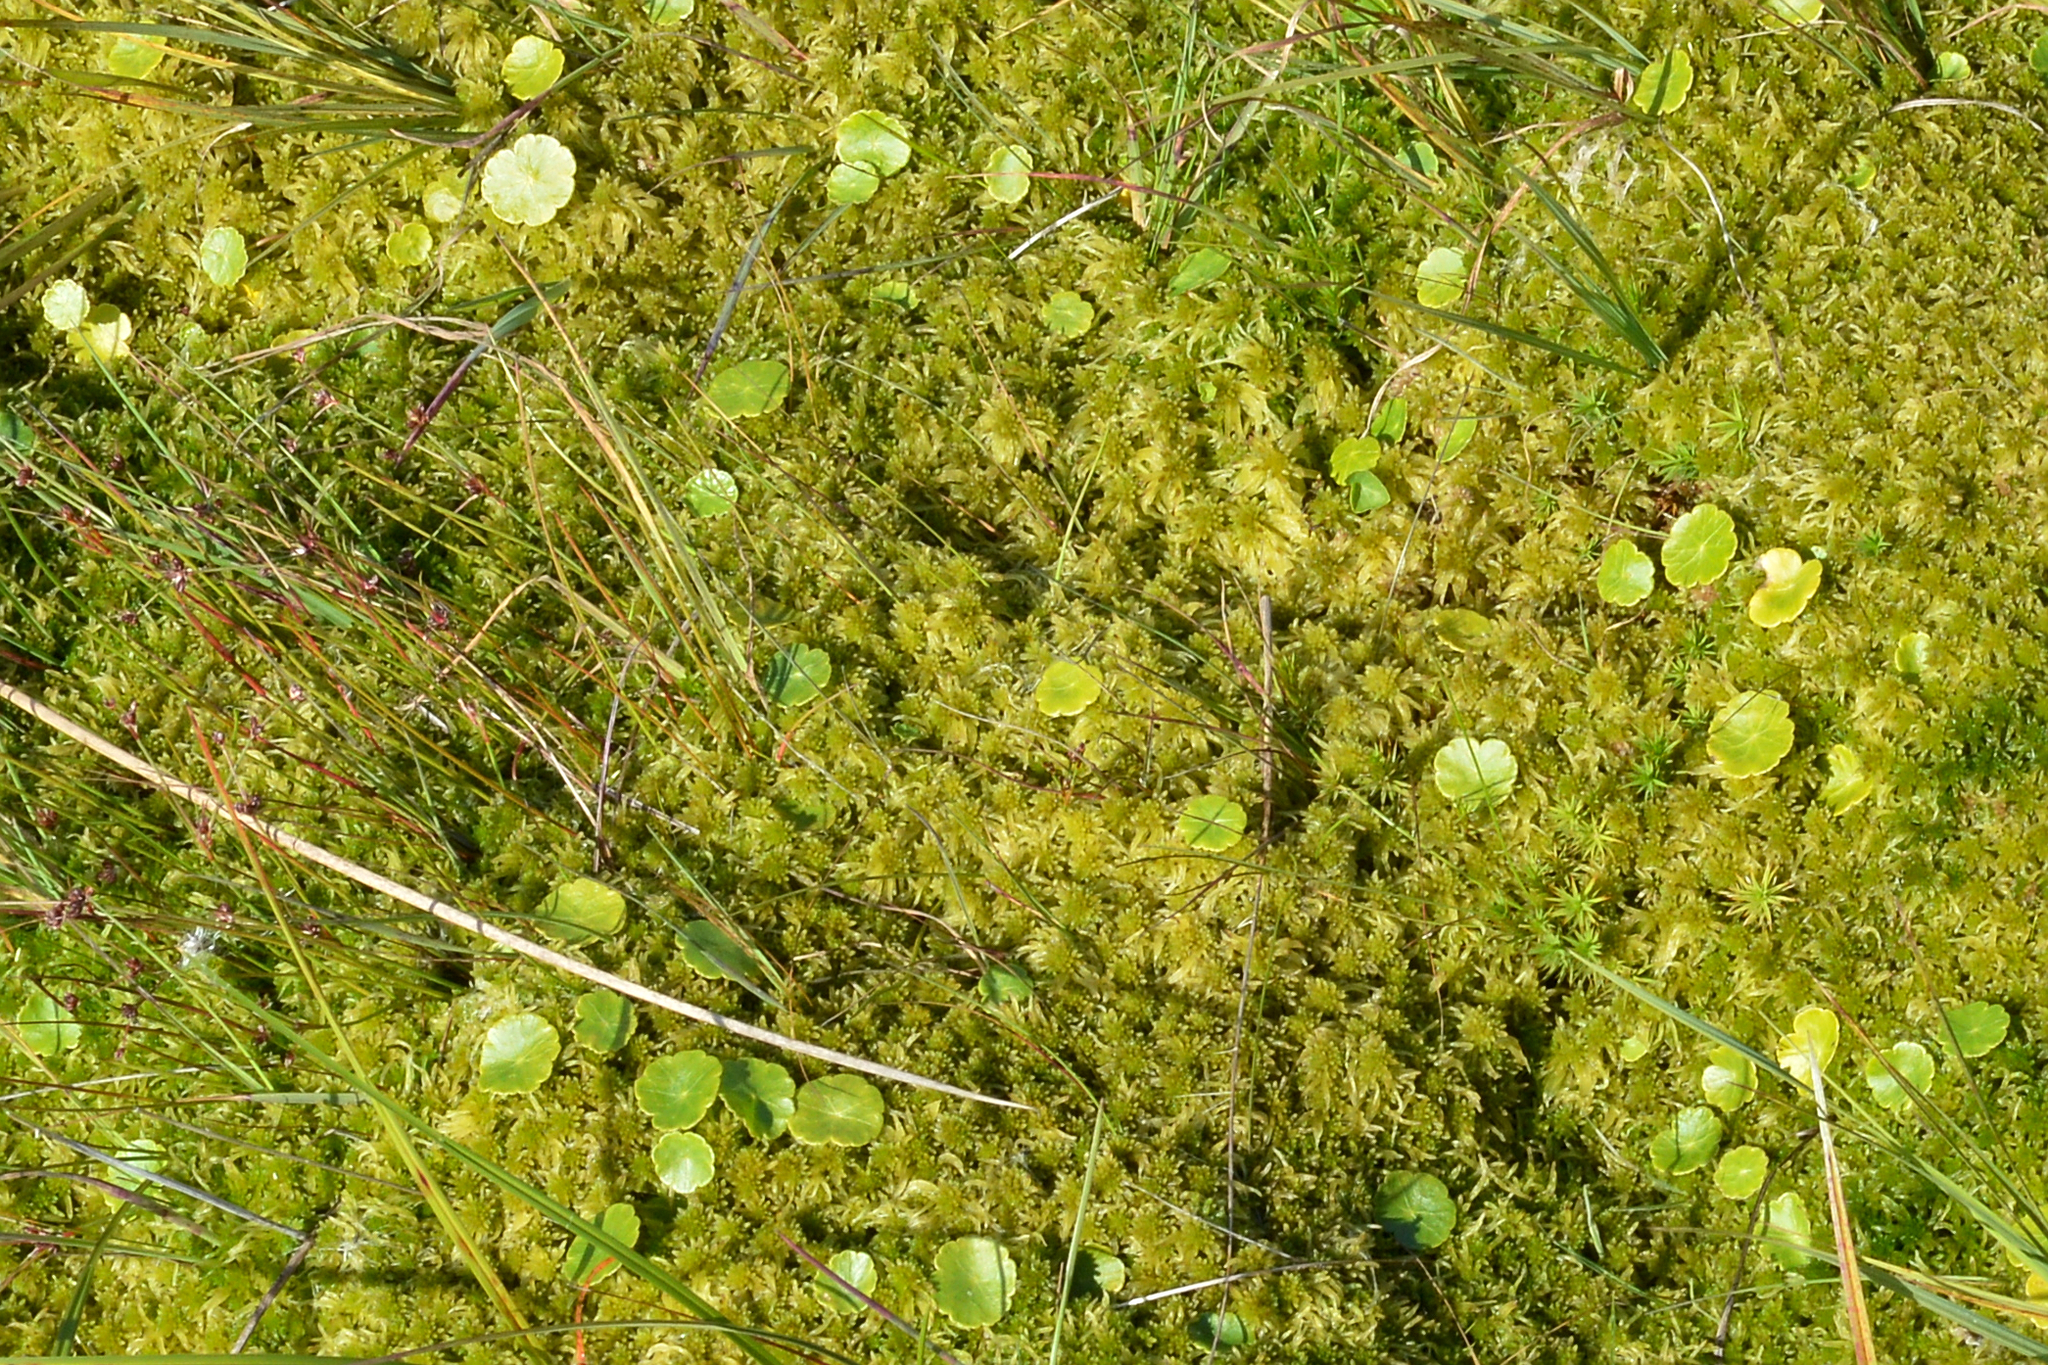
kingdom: Plantae
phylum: Tracheophyta
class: Magnoliopsida
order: Apiales
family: Araliaceae
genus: Hydrocotyle
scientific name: Hydrocotyle vulgaris
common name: Marsh pennywort
